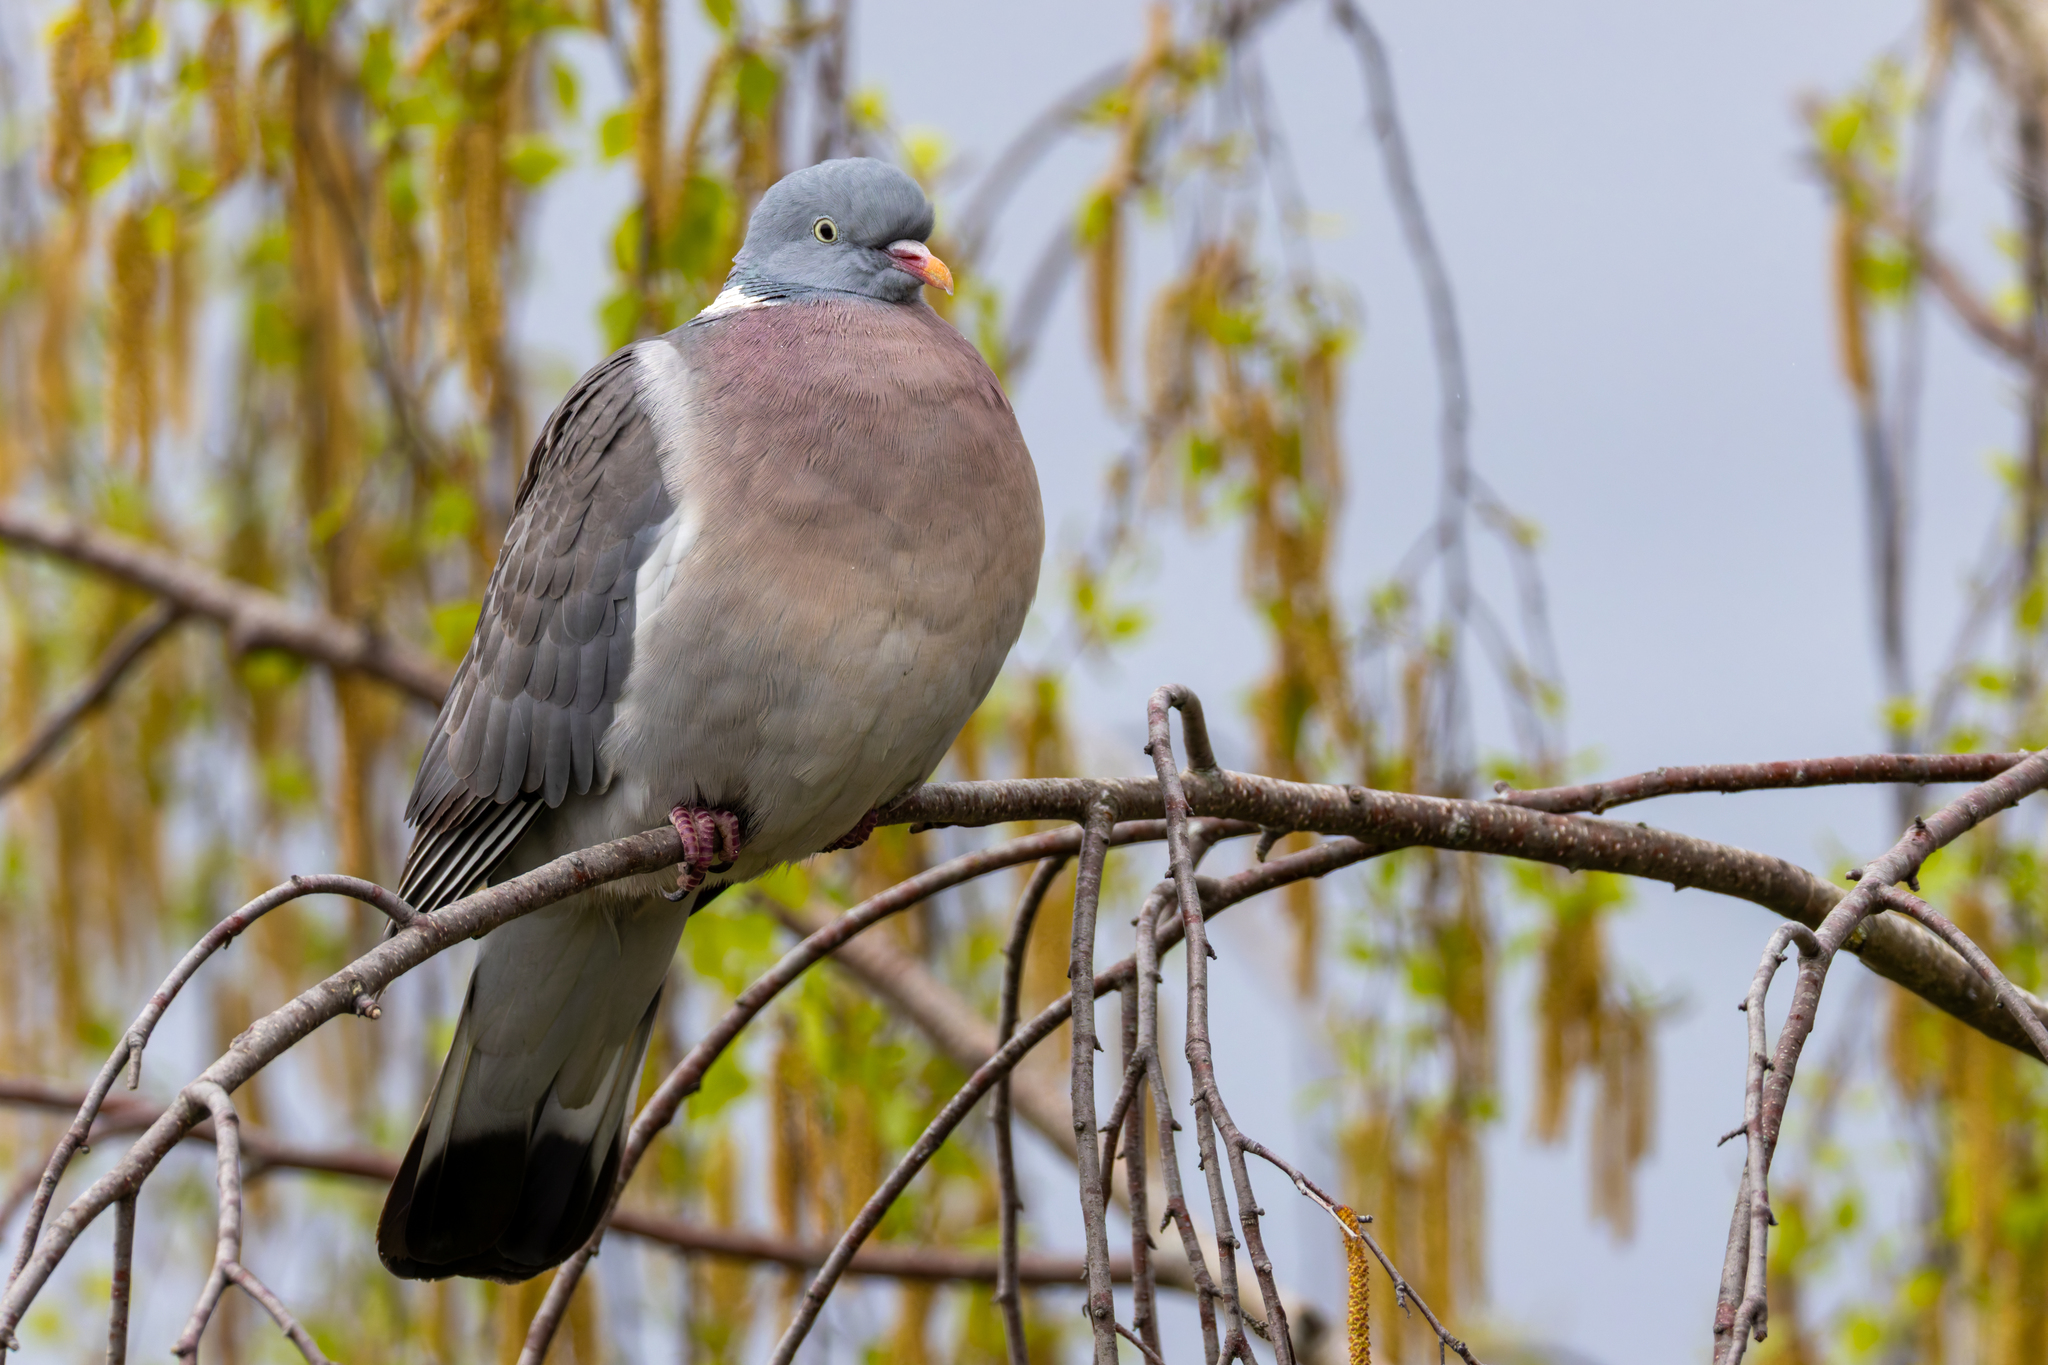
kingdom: Animalia
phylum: Chordata
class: Aves
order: Columbiformes
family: Columbidae
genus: Columba
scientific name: Columba palumbus
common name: Common wood pigeon
